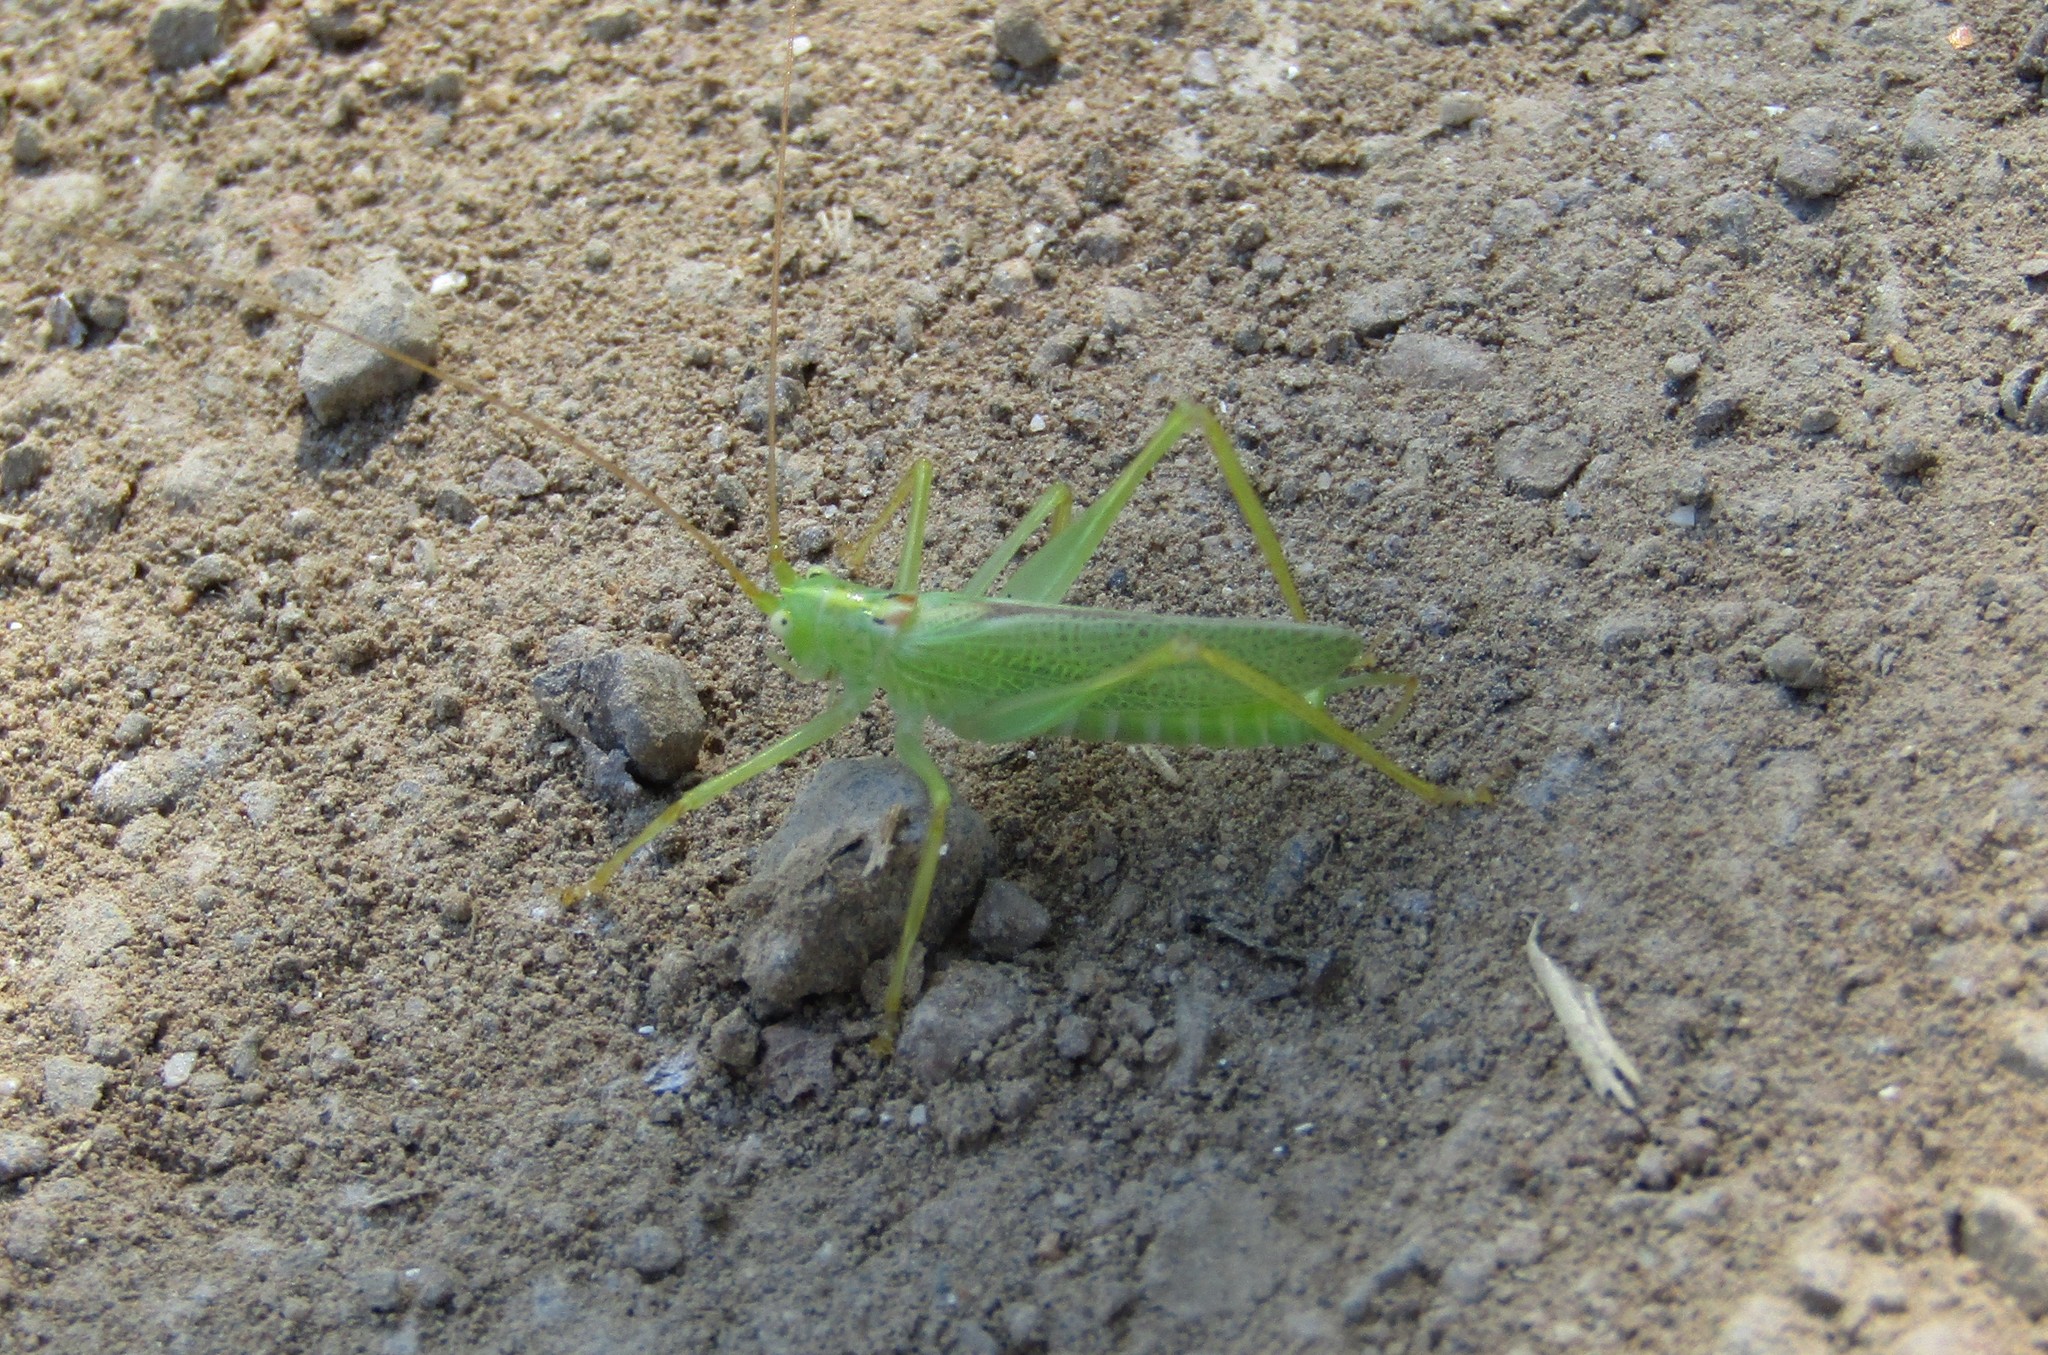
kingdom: Animalia
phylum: Arthropoda
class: Insecta
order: Orthoptera
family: Tettigoniidae
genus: Meconema
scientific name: Meconema thalassinum
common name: Oak bush-cricket
